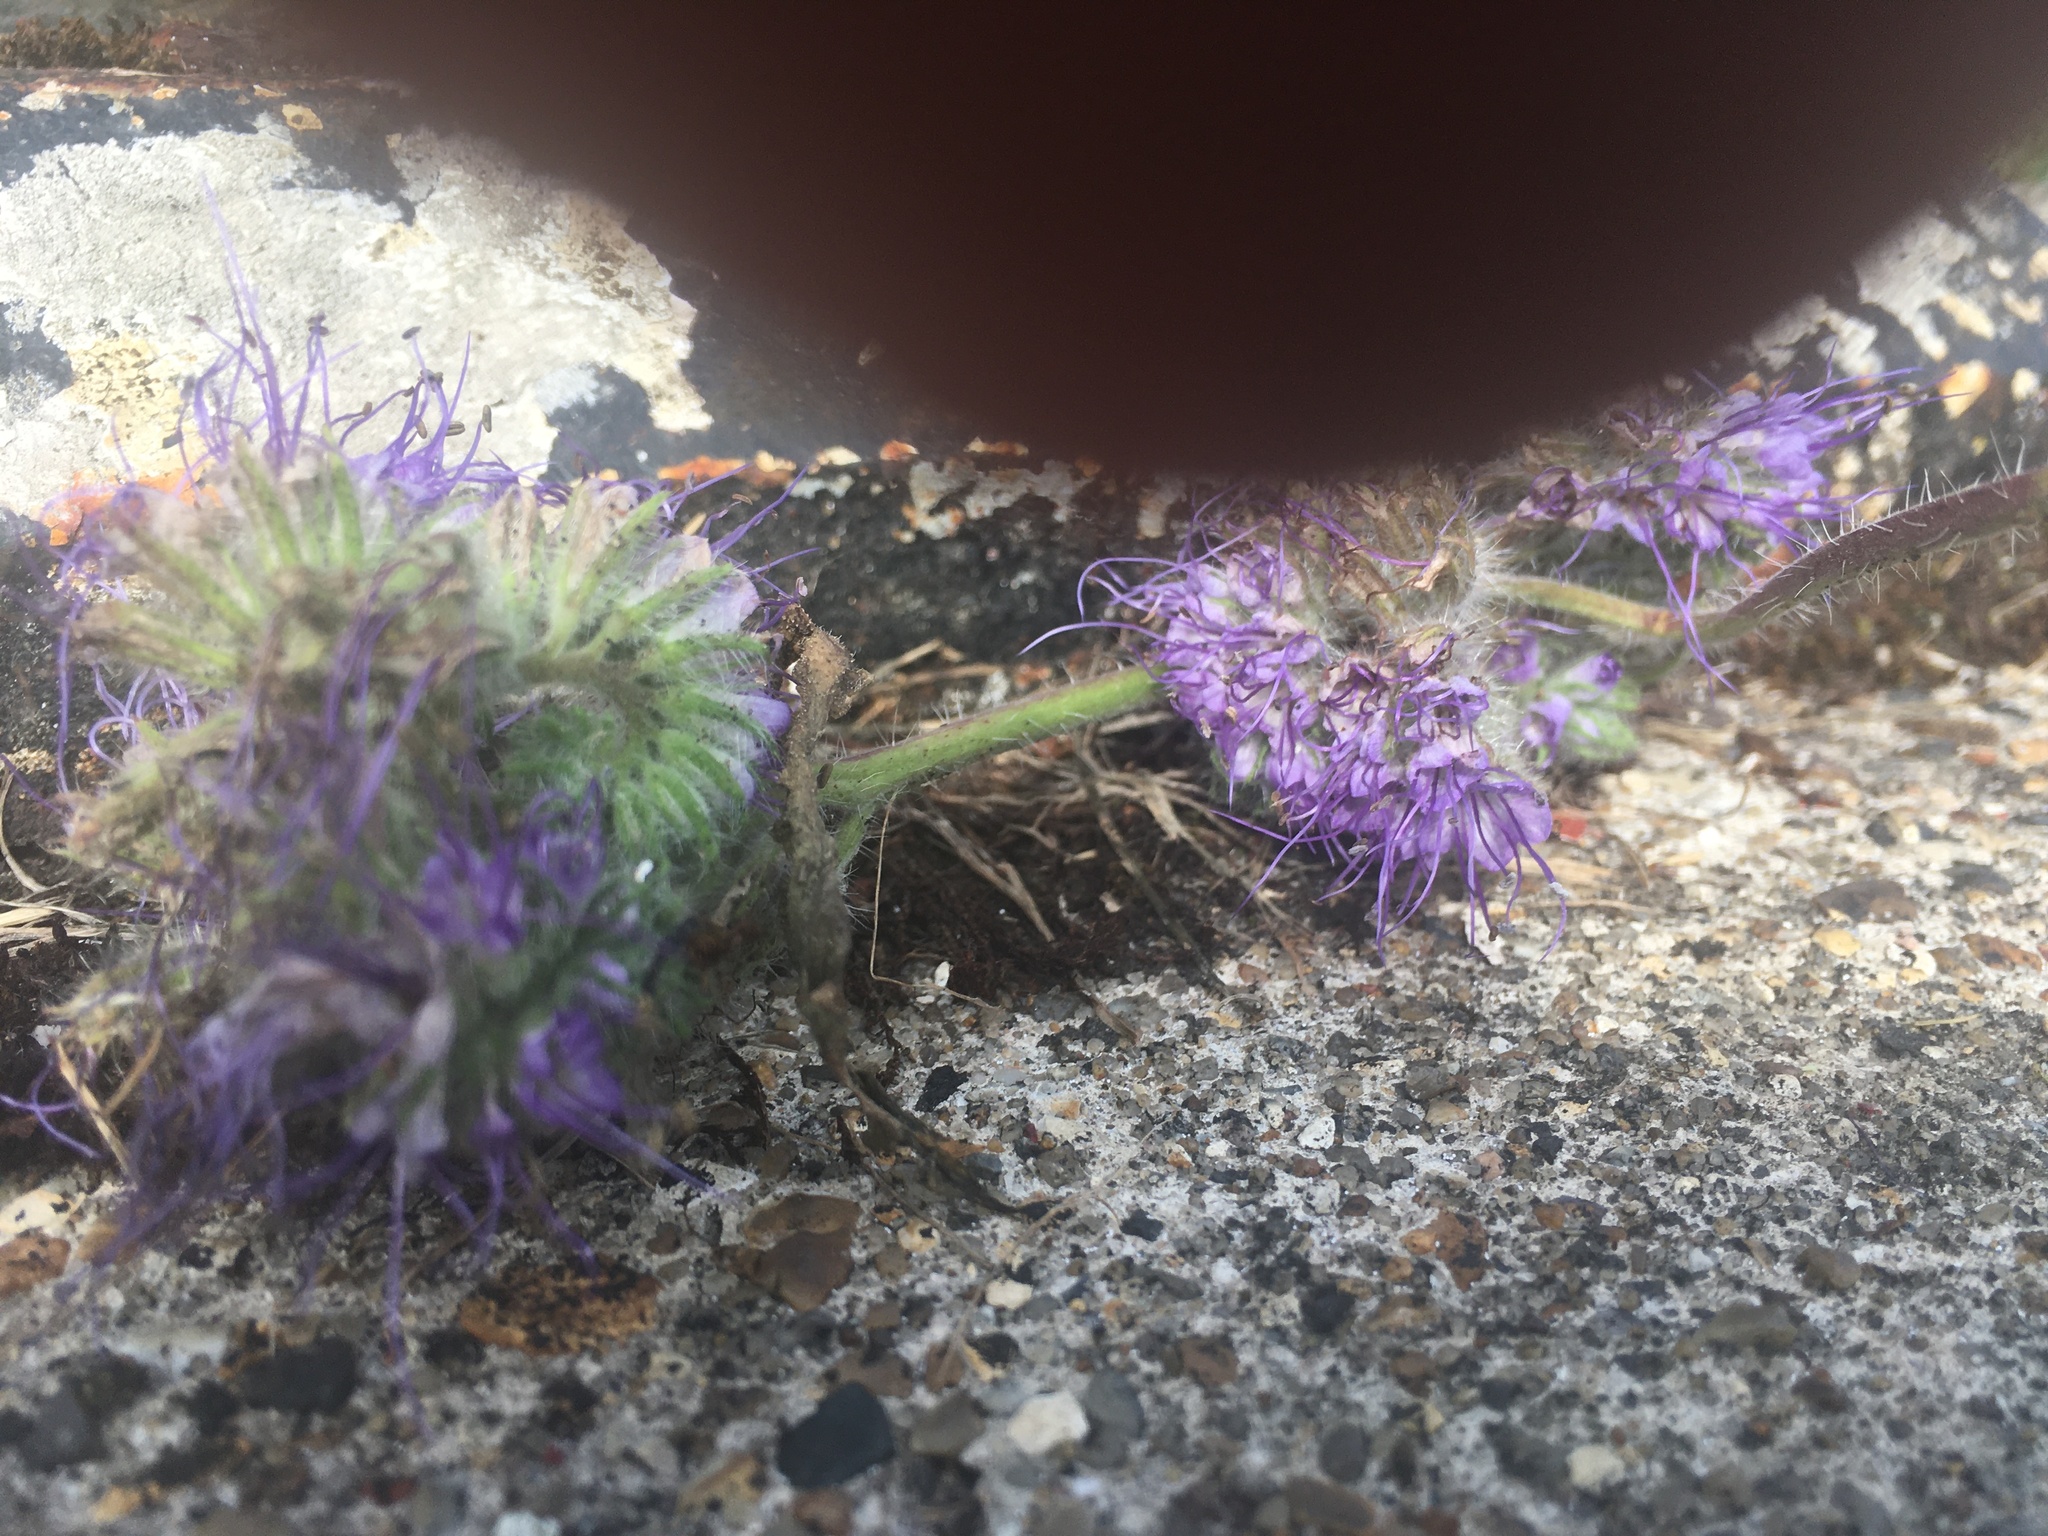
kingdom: Plantae
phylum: Tracheophyta
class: Magnoliopsida
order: Boraginales
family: Hydrophyllaceae
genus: Phacelia
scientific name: Phacelia tanacetifolia
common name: Phacelia
